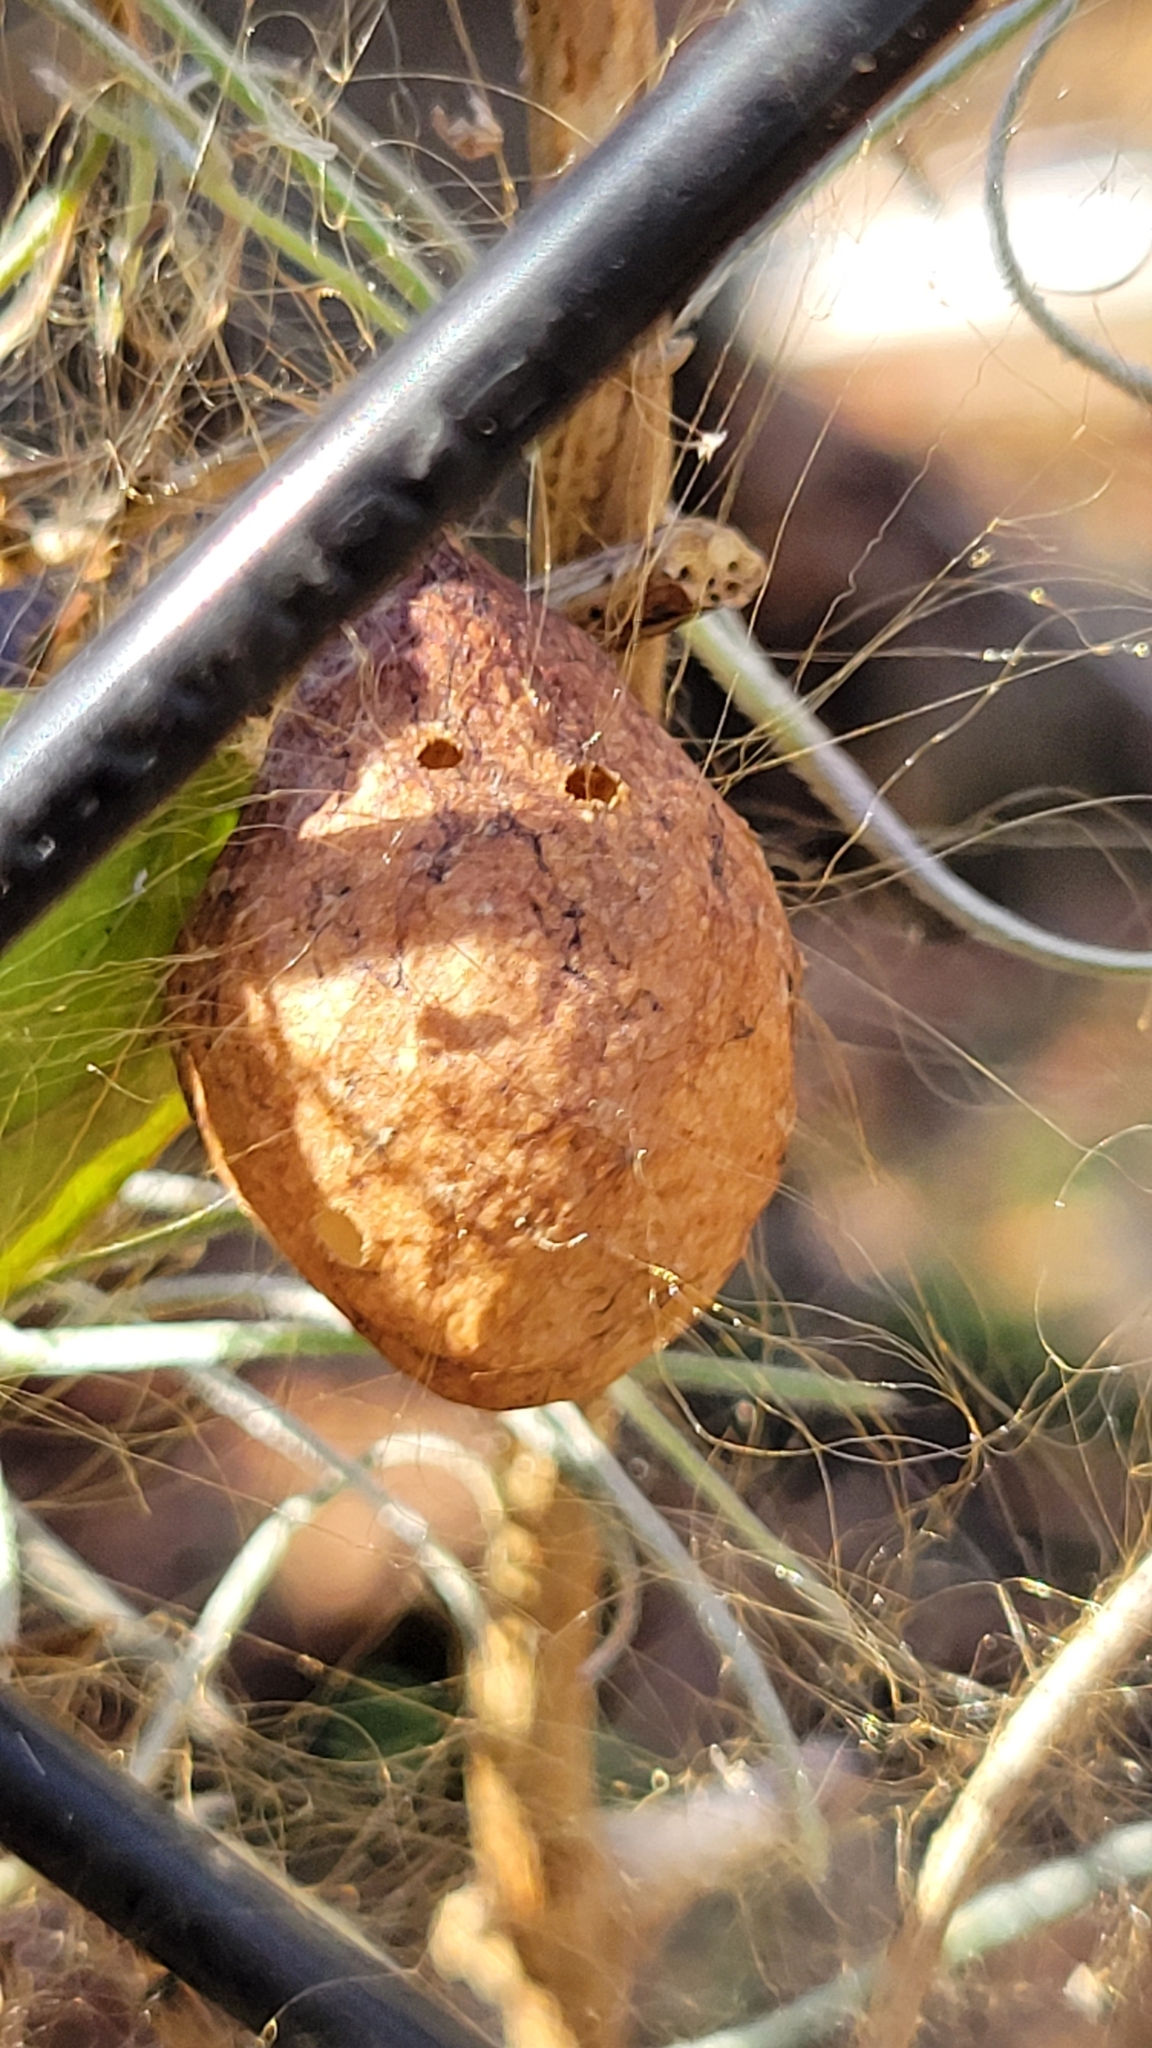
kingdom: Animalia
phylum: Arthropoda
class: Arachnida
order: Araneae
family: Araneidae
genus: Argiope
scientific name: Argiope aurantia
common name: Orb weavers
